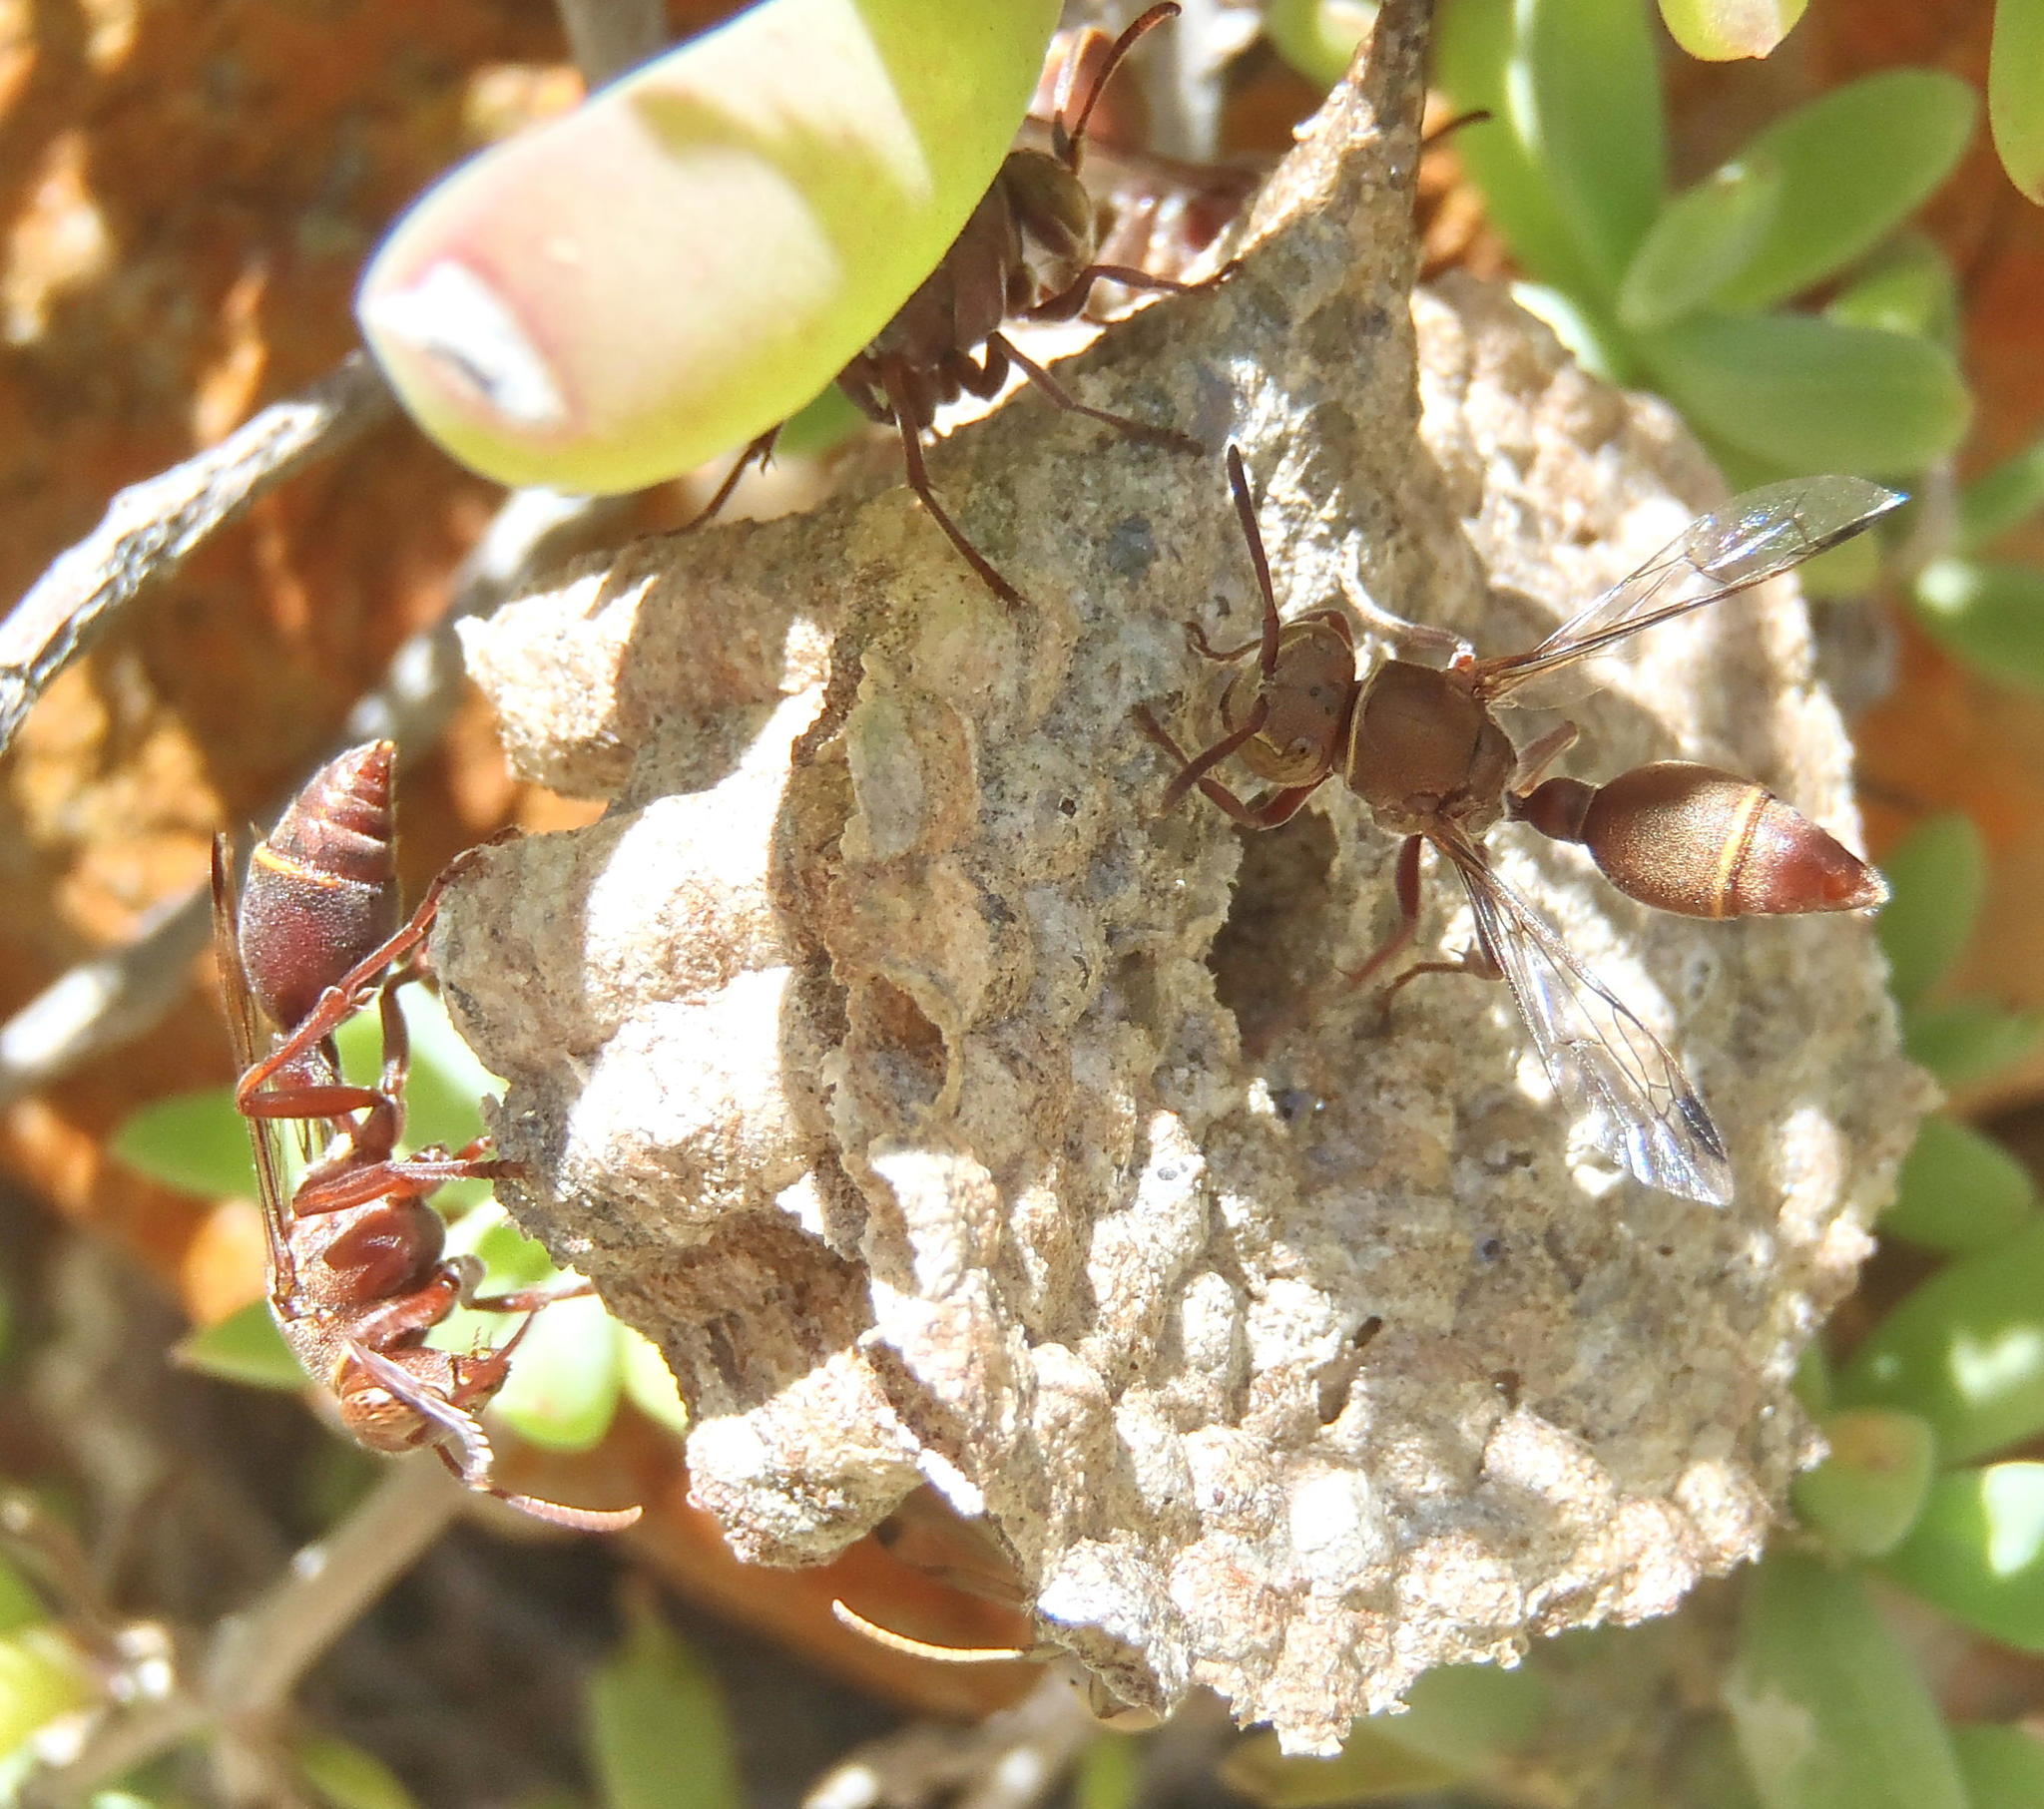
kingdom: Animalia
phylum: Arthropoda
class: Insecta
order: Hymenoptera
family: Vespidae
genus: Ropalidia
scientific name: Ropalidia distigma
